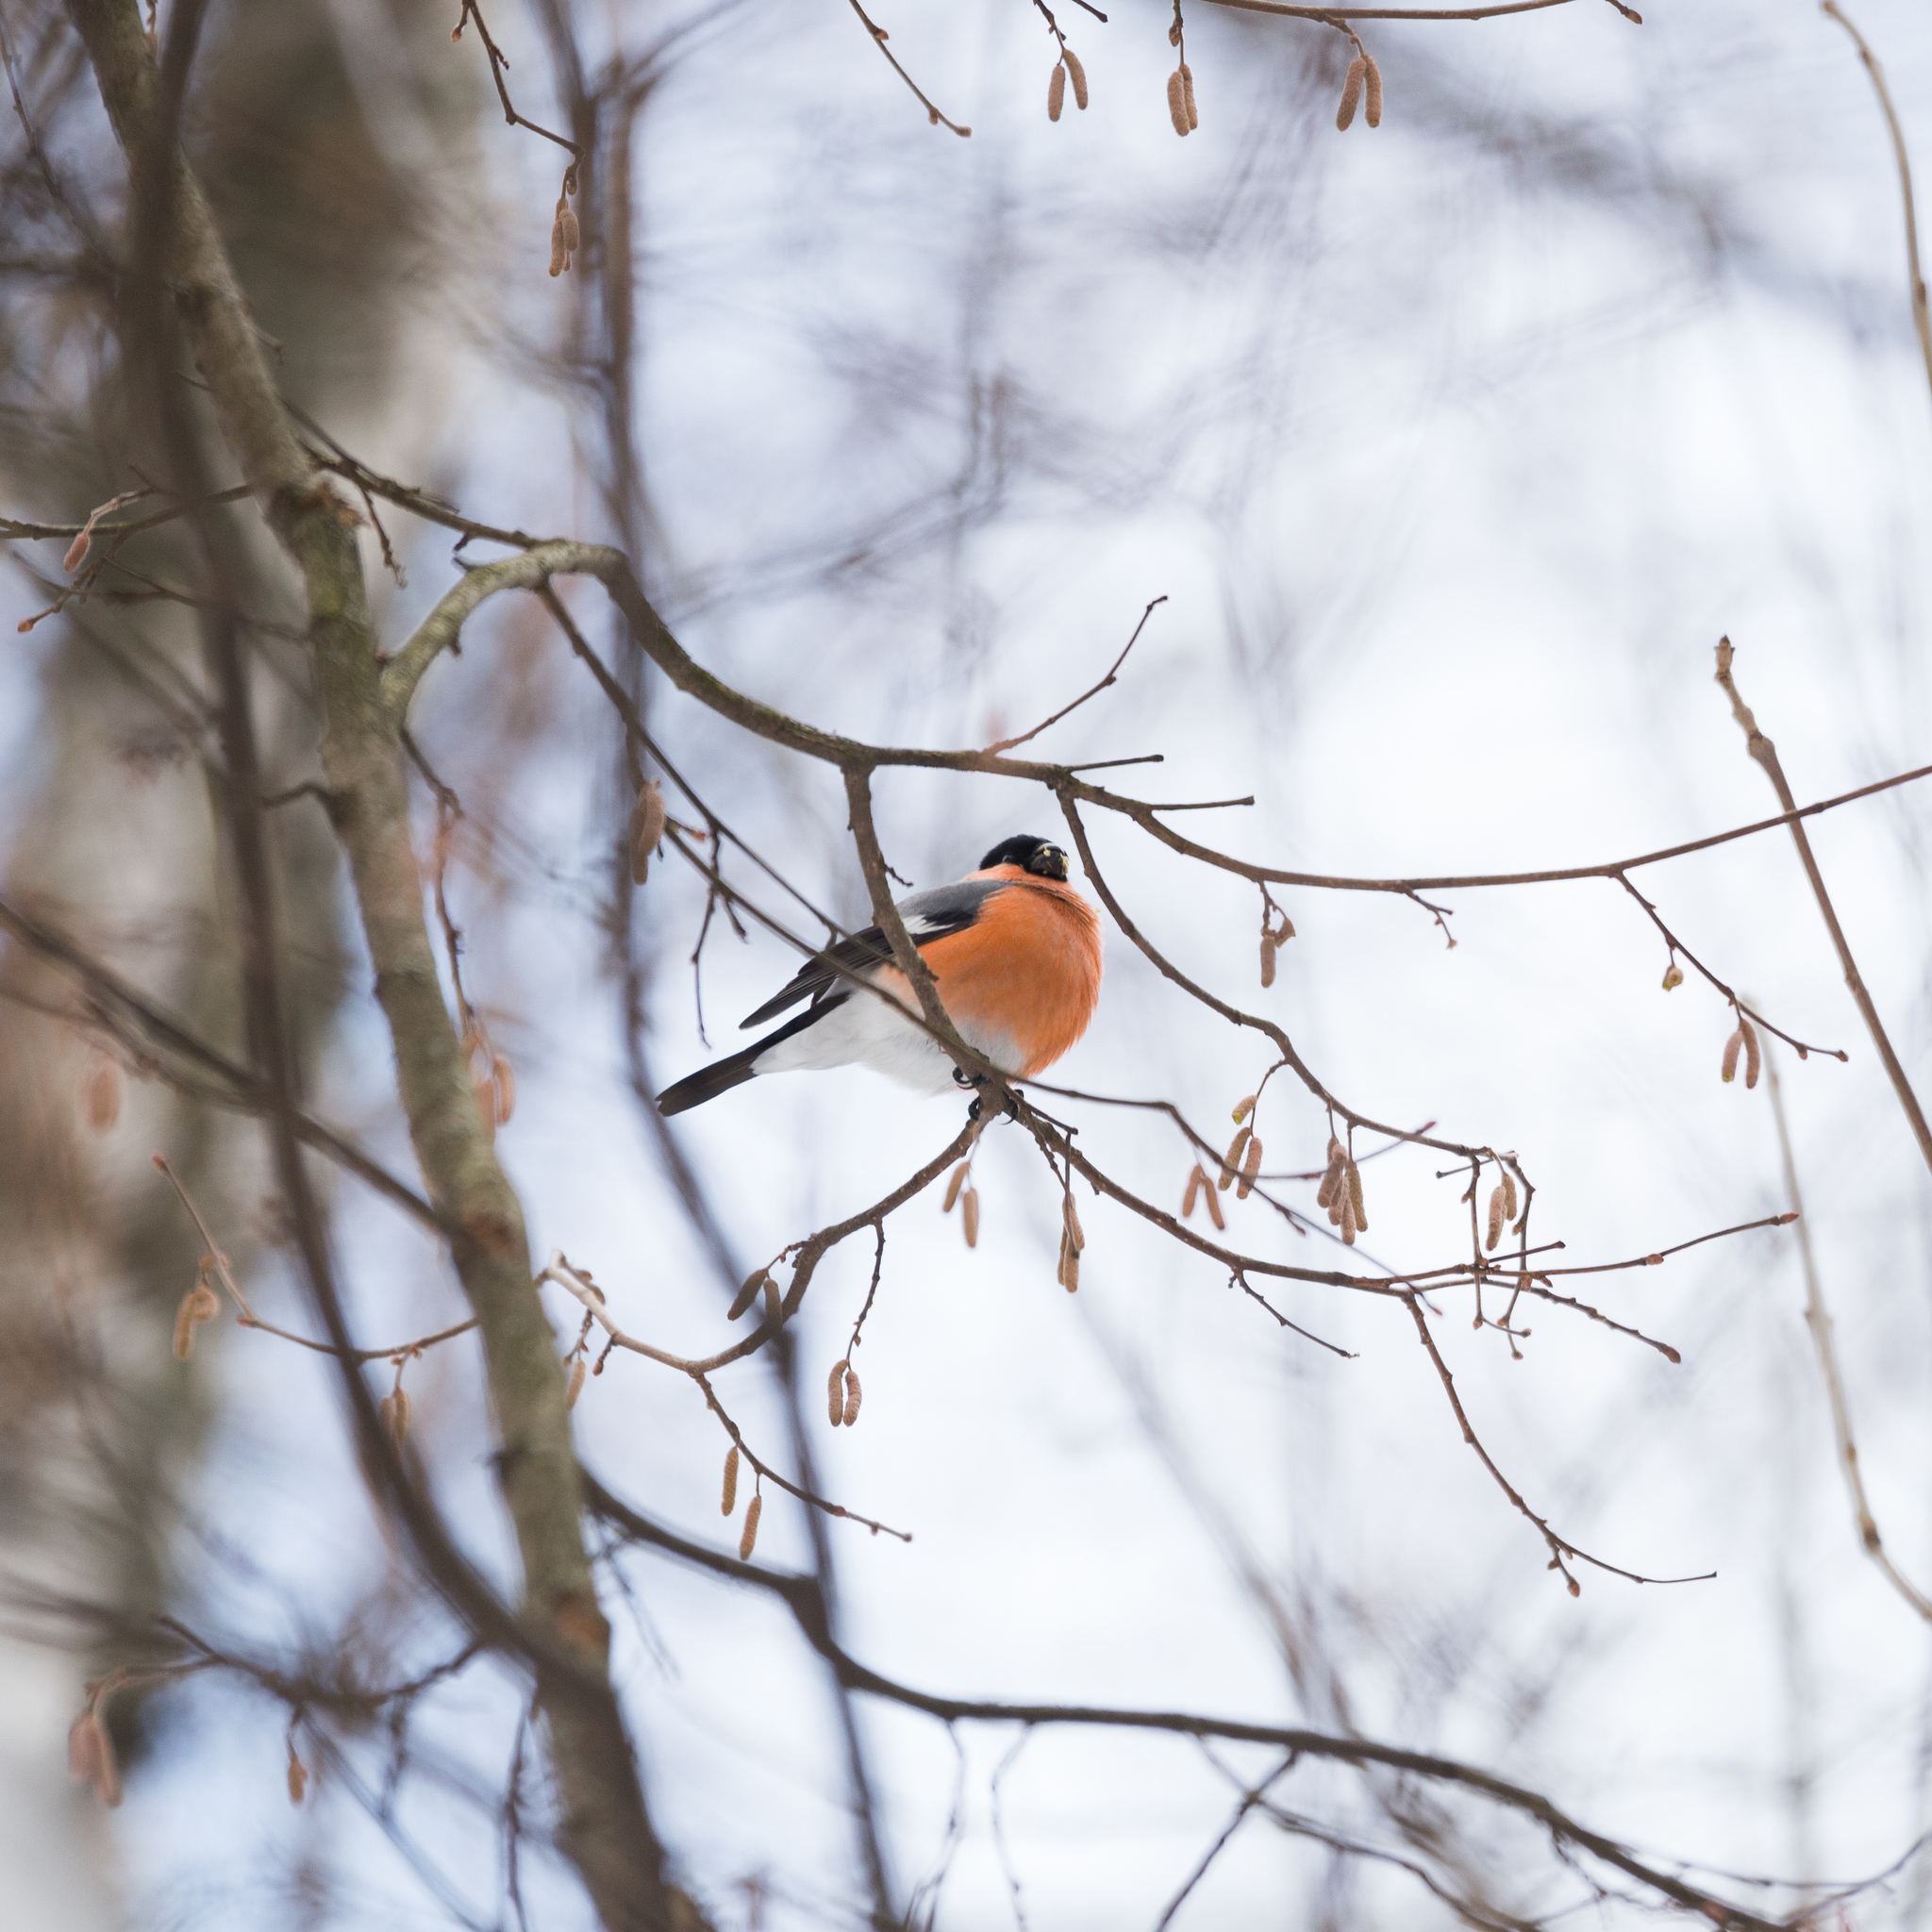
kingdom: Animalia
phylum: Chordata
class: Aves
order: Passeriformes
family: Fringillidae
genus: Pyrrhula
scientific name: Pyrrhula pyrrhula
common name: Eurasian bullfinch
